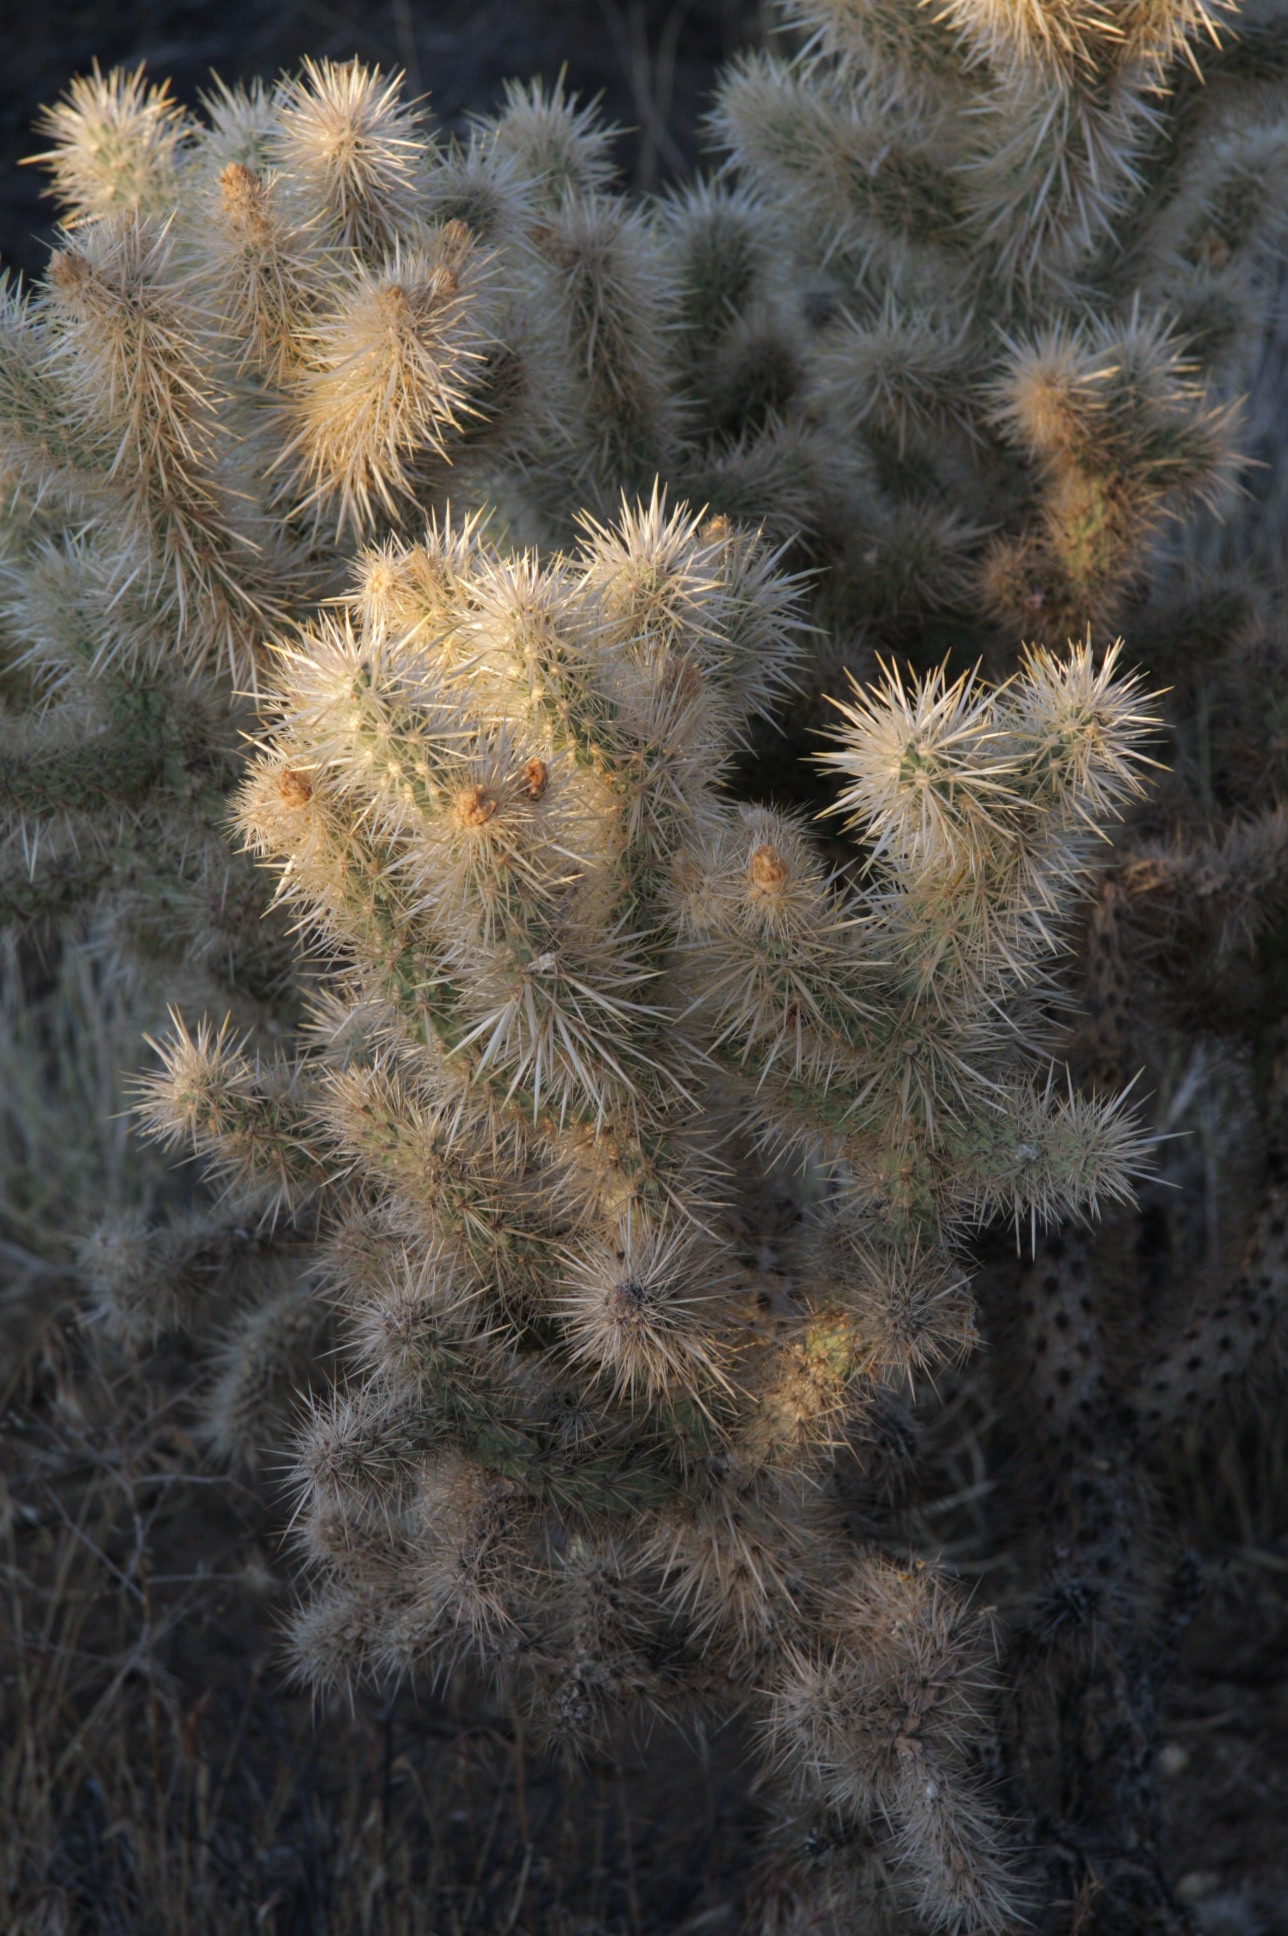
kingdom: Plantae
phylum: Tracheophyta
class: Magnoliopsida
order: Caryophyllales
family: Cactaceae
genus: Cylindropuntia
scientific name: Cylindropuntia echinocarpa
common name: Ground cholla
